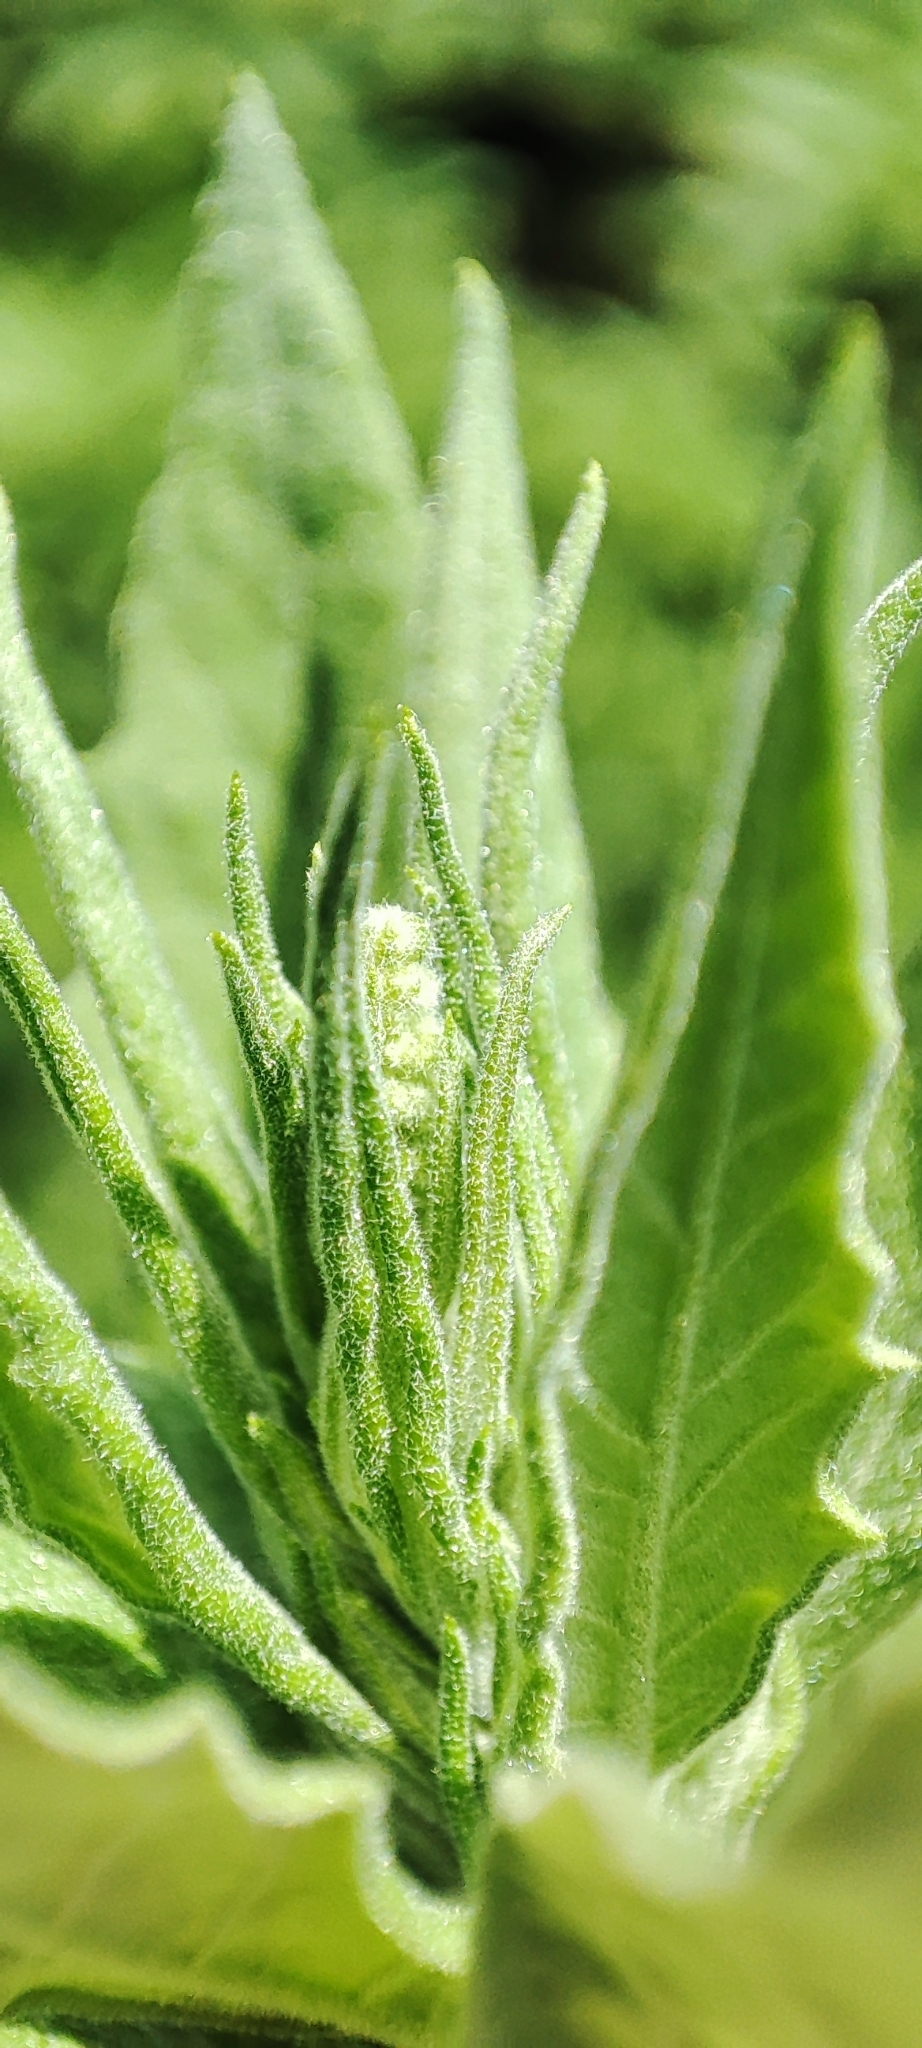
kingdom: Plantae
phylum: Tracheophyta
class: Magnoliopsida
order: Caryophyllales
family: Amaranthaceae
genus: Axyris
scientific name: Axyris amaranthoides
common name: Russian pigweed
